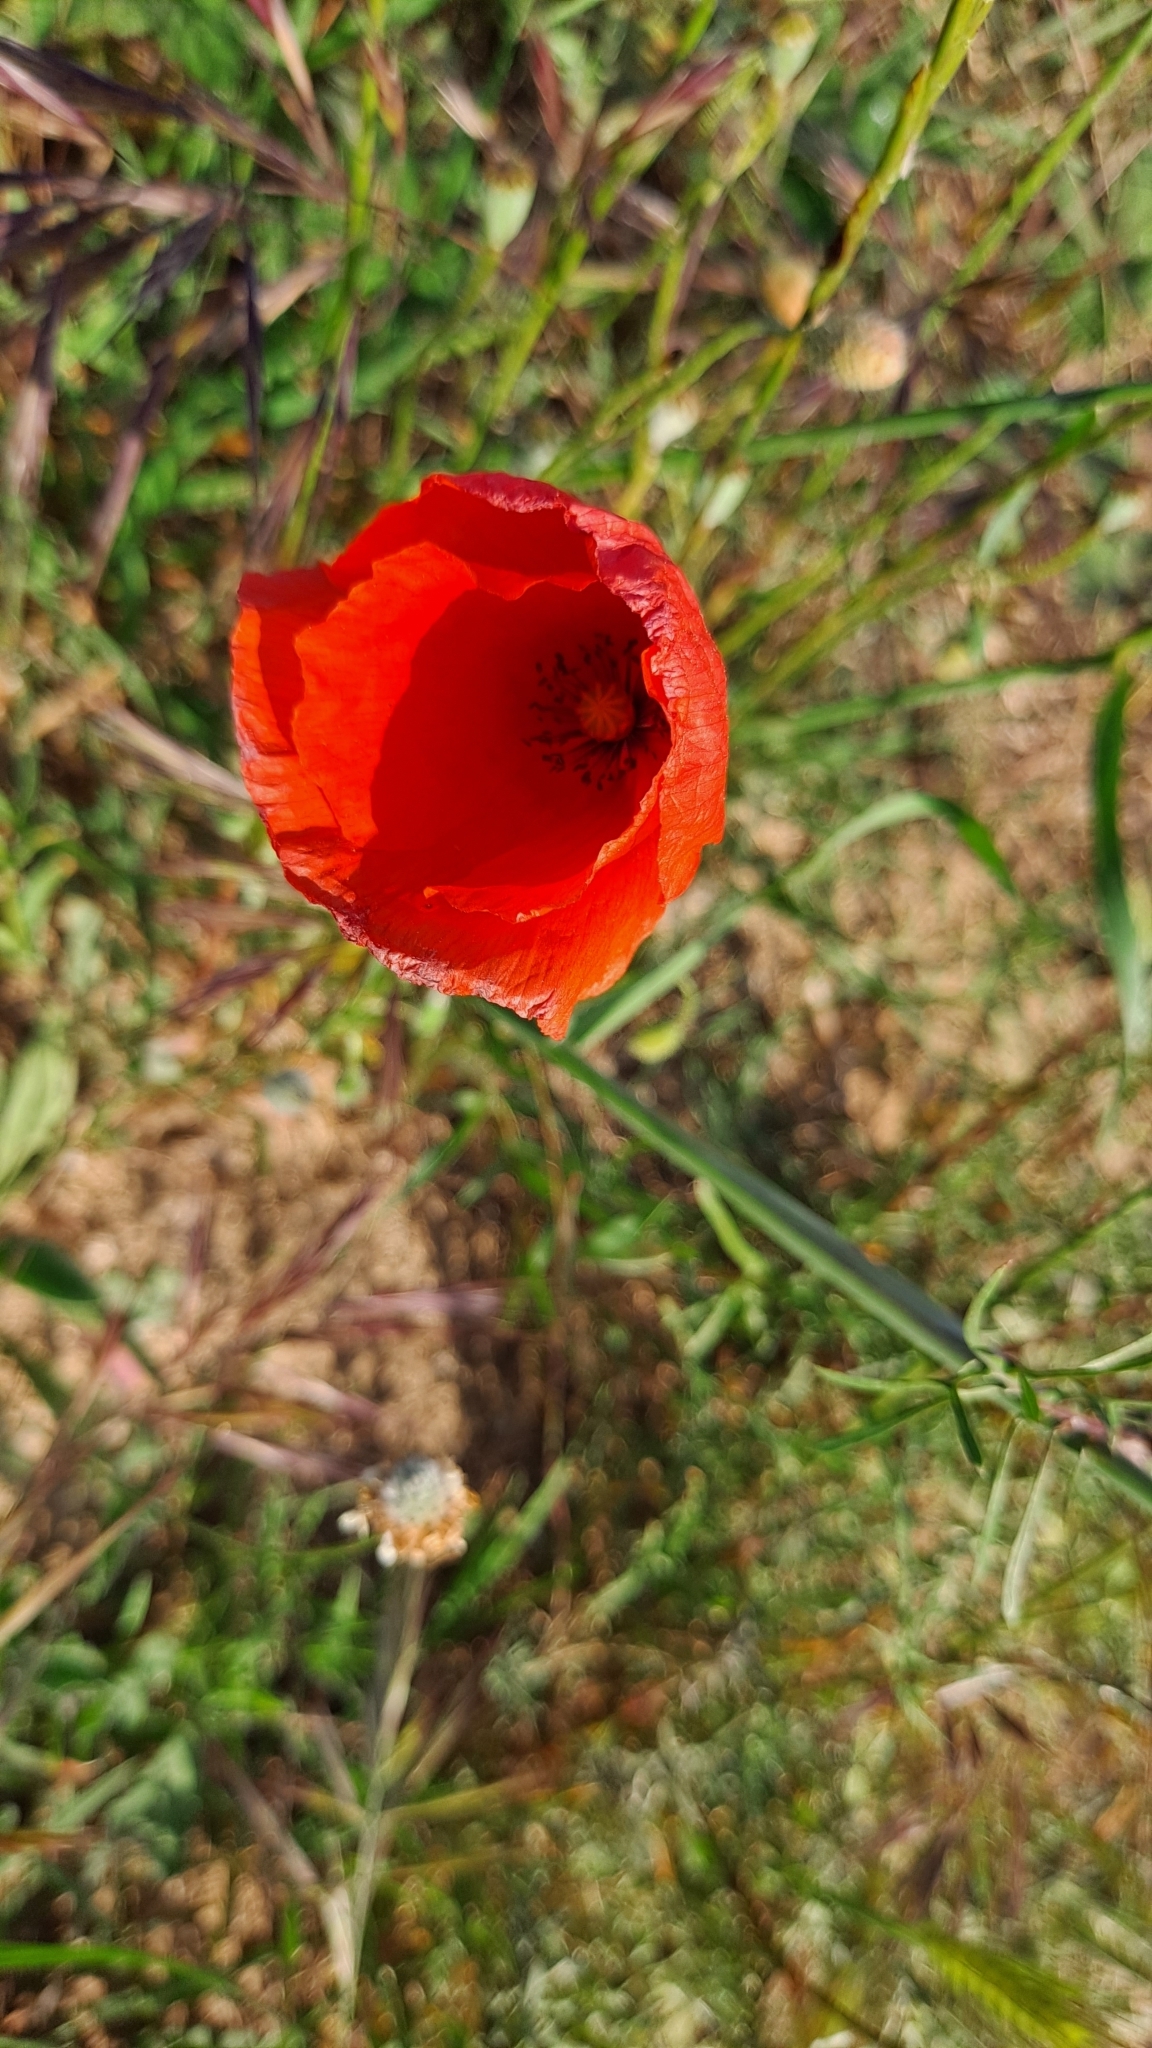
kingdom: Plantae
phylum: Tracheophyta
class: Magnoliopsida
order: Ranunculales
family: Papaveraceae
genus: Papaver
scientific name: Papaver rhoeas
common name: Corn poppy
